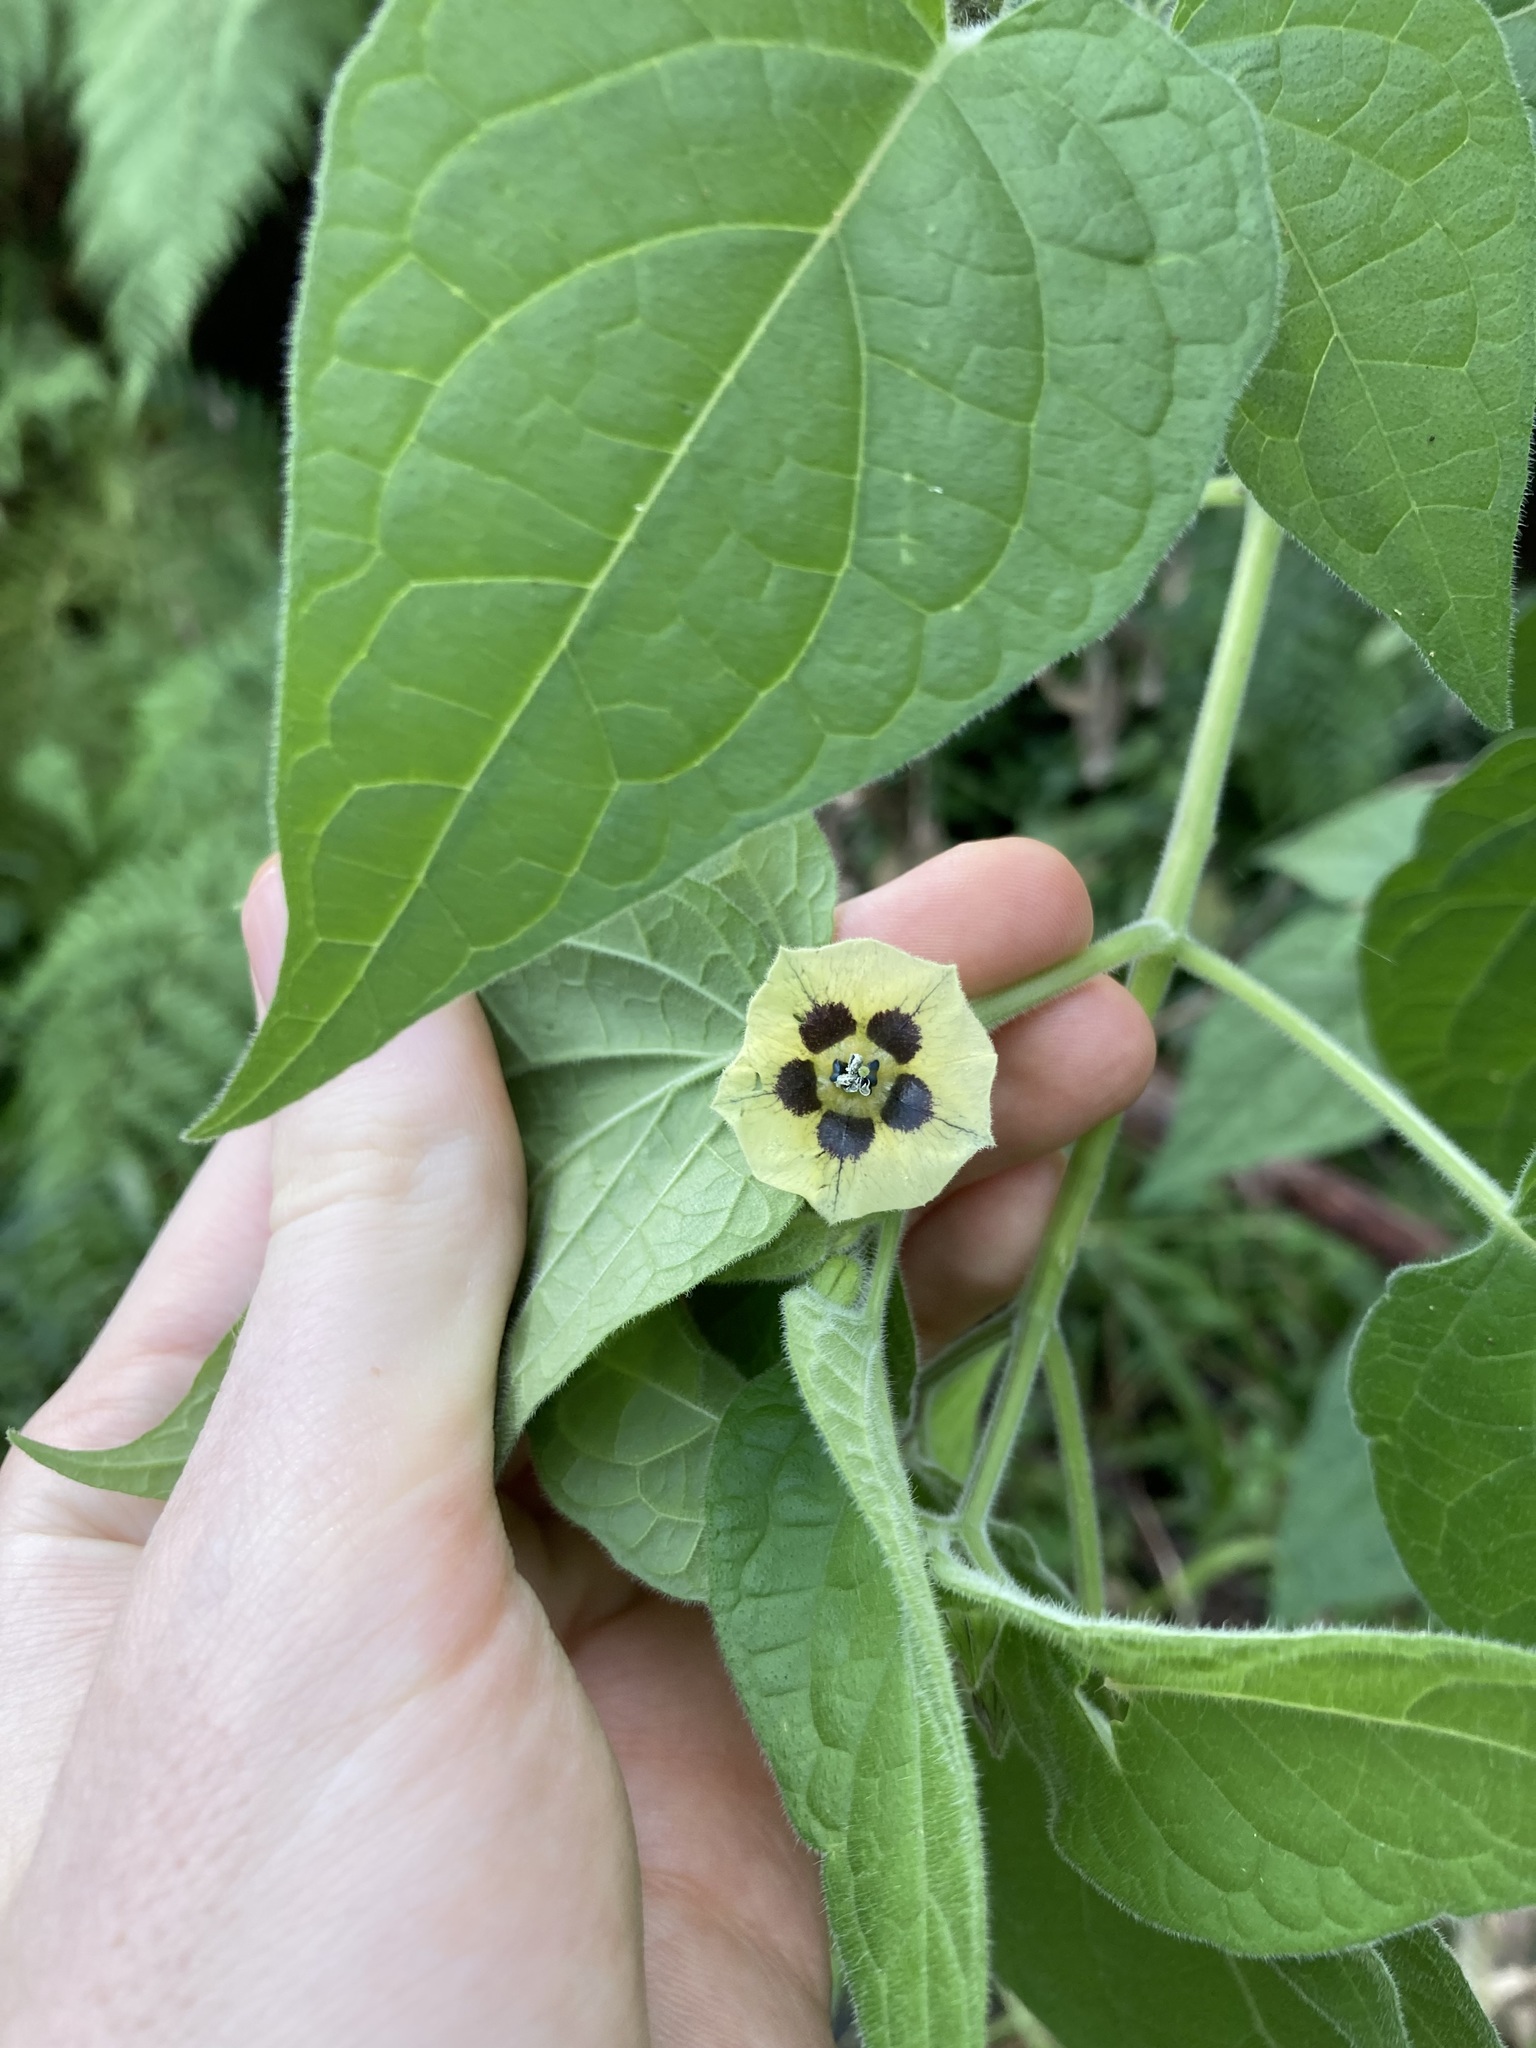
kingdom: Plantae
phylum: Tracheophyta
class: Magnoliopsida
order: Solanales
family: Solanaceae
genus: Physalis
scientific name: Physalis peruviana
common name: Cape-gooseberry
